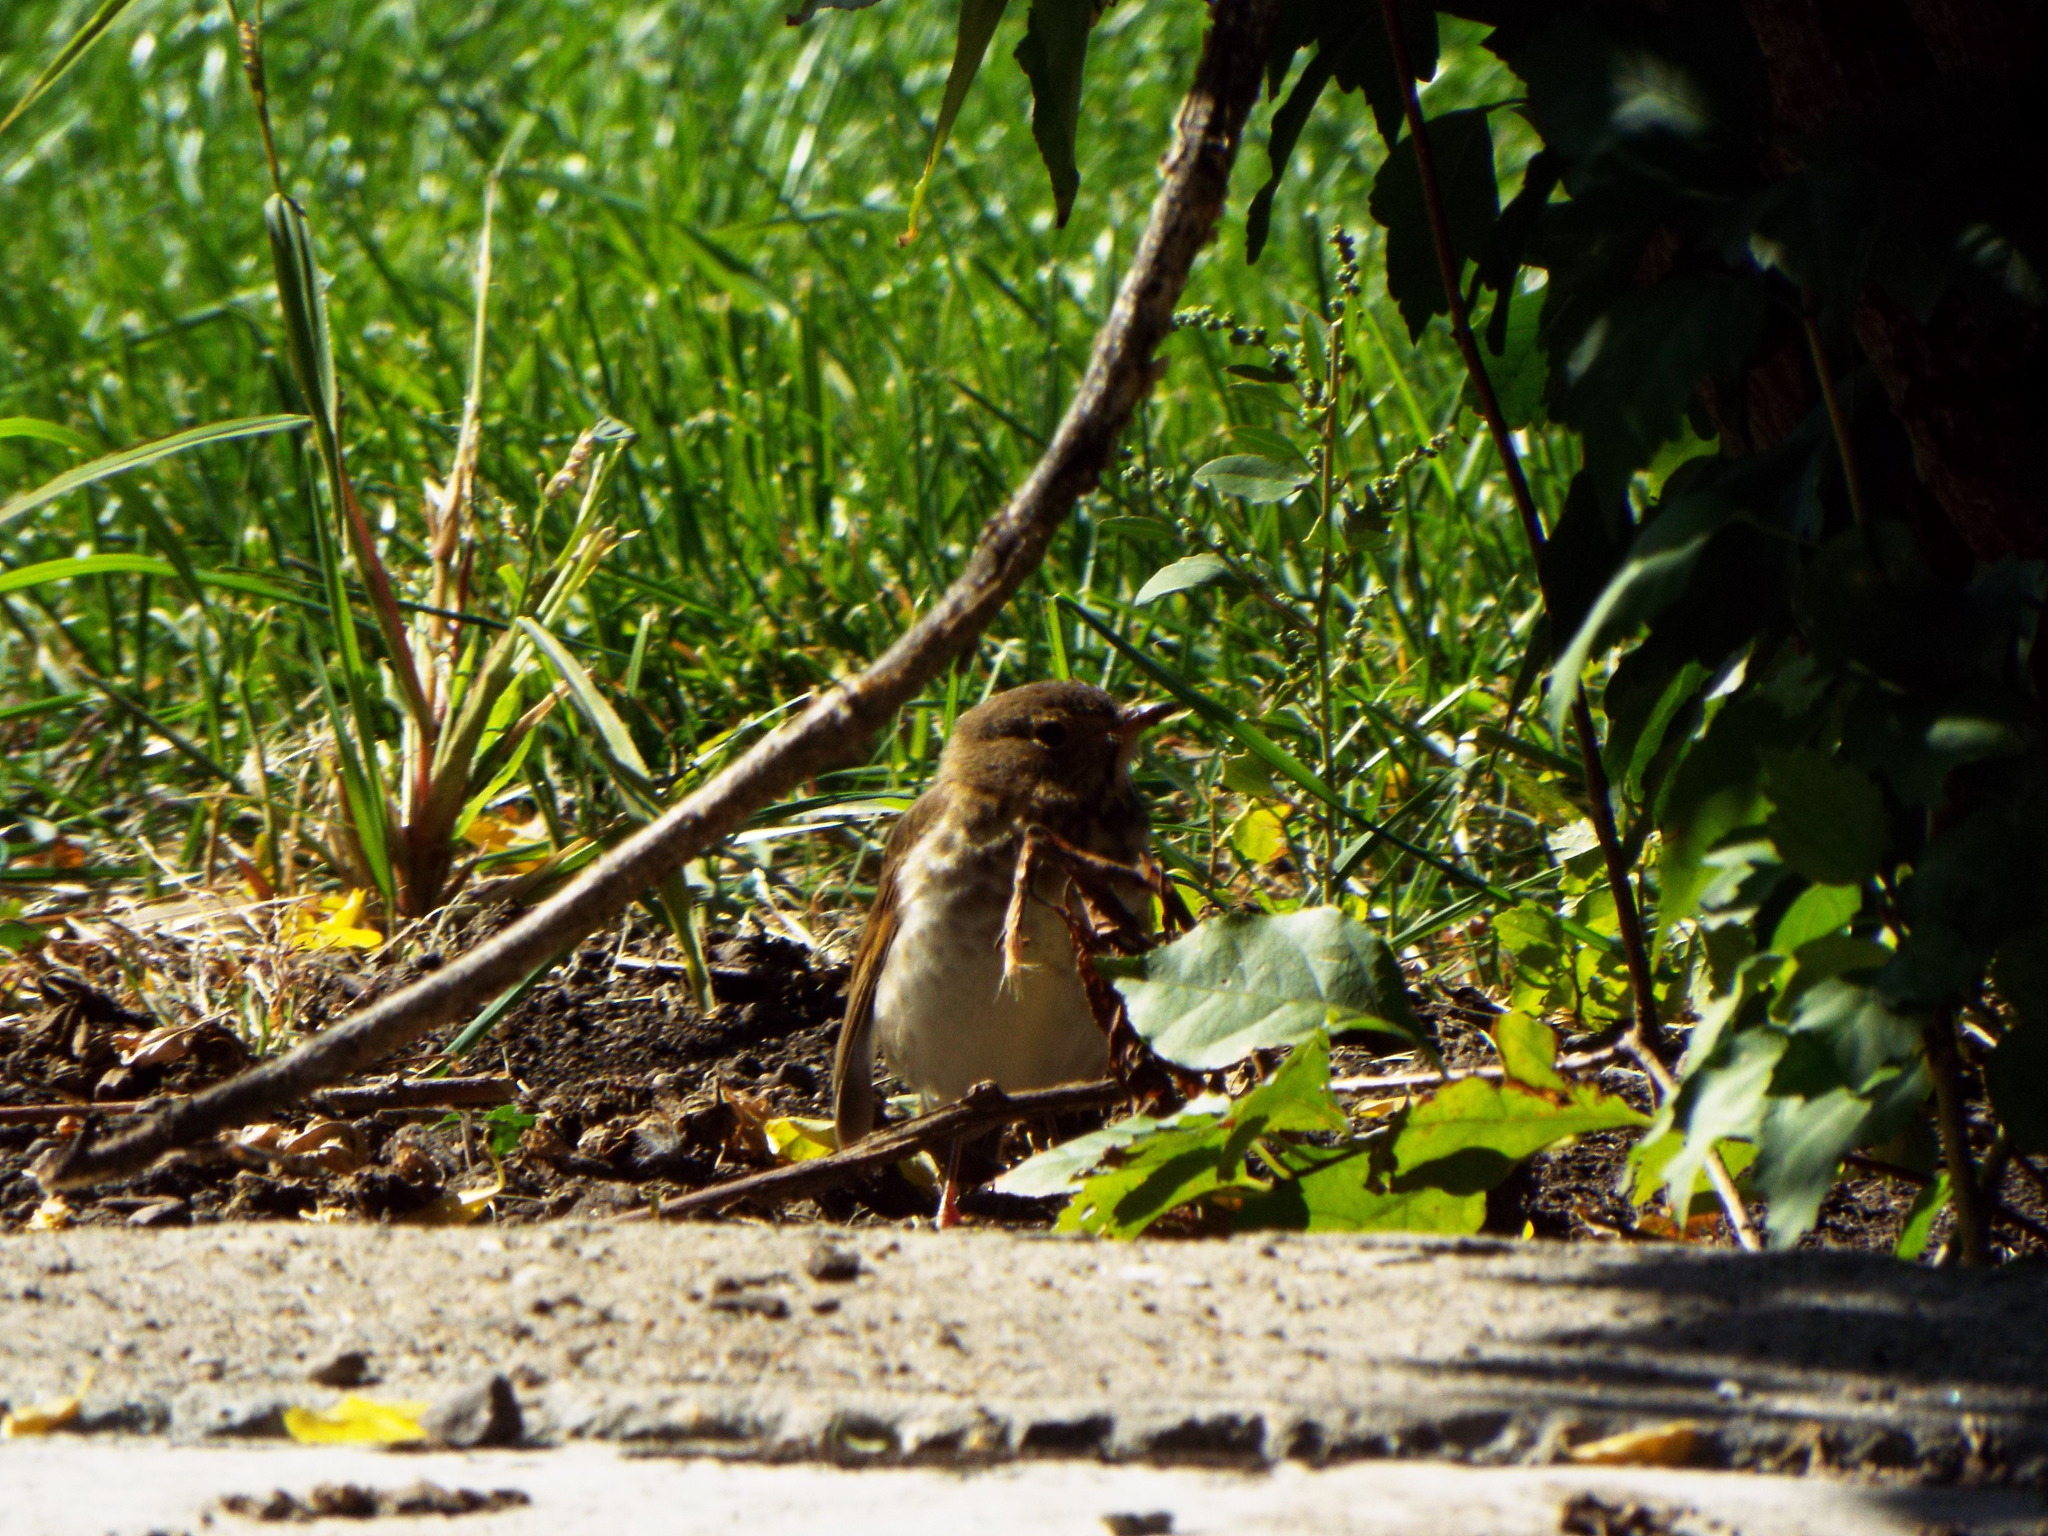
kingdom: Animalia
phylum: Chordata
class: Aves
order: Passeriformes
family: Turdidae
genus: Catharus
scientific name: Catharus ustulatus
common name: Swainson's thrush
